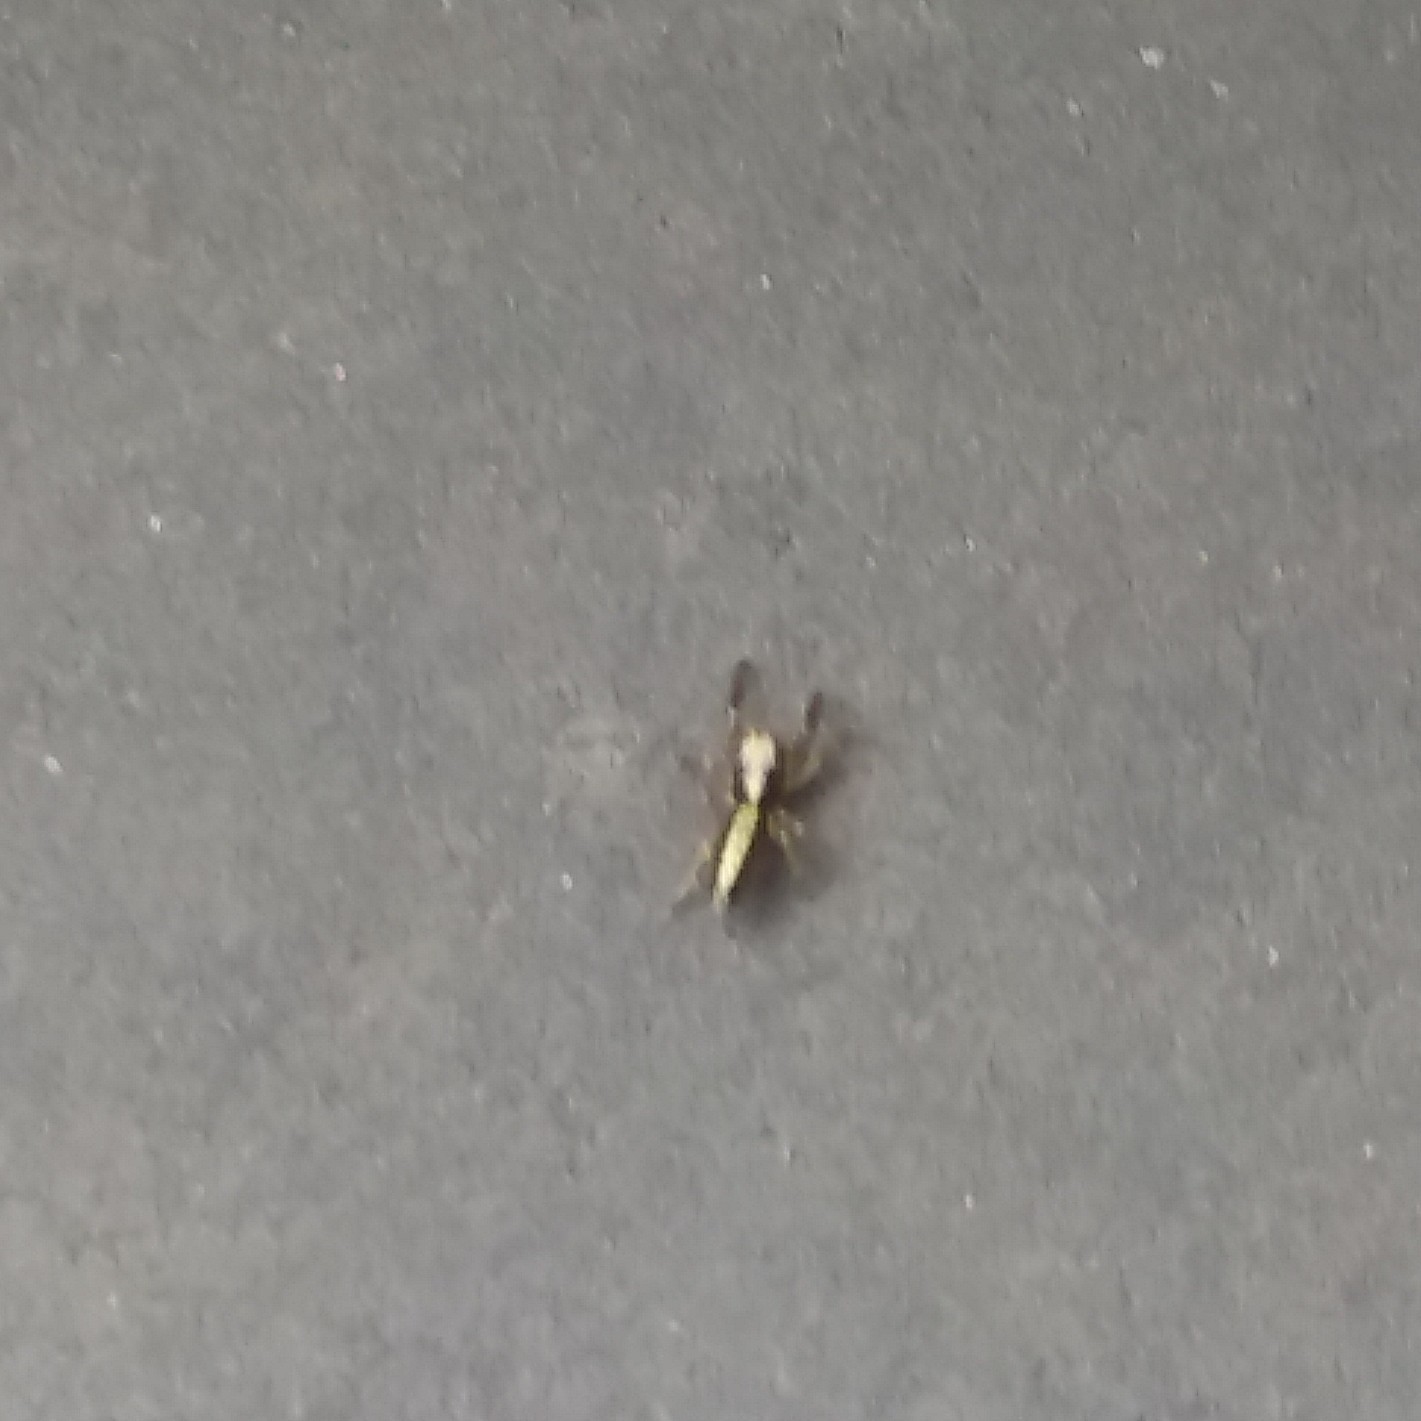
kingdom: Animalia
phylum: Arthropoda
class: Arachnida
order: Araneae
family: Salticidae
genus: Trite
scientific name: Trite planiceps
